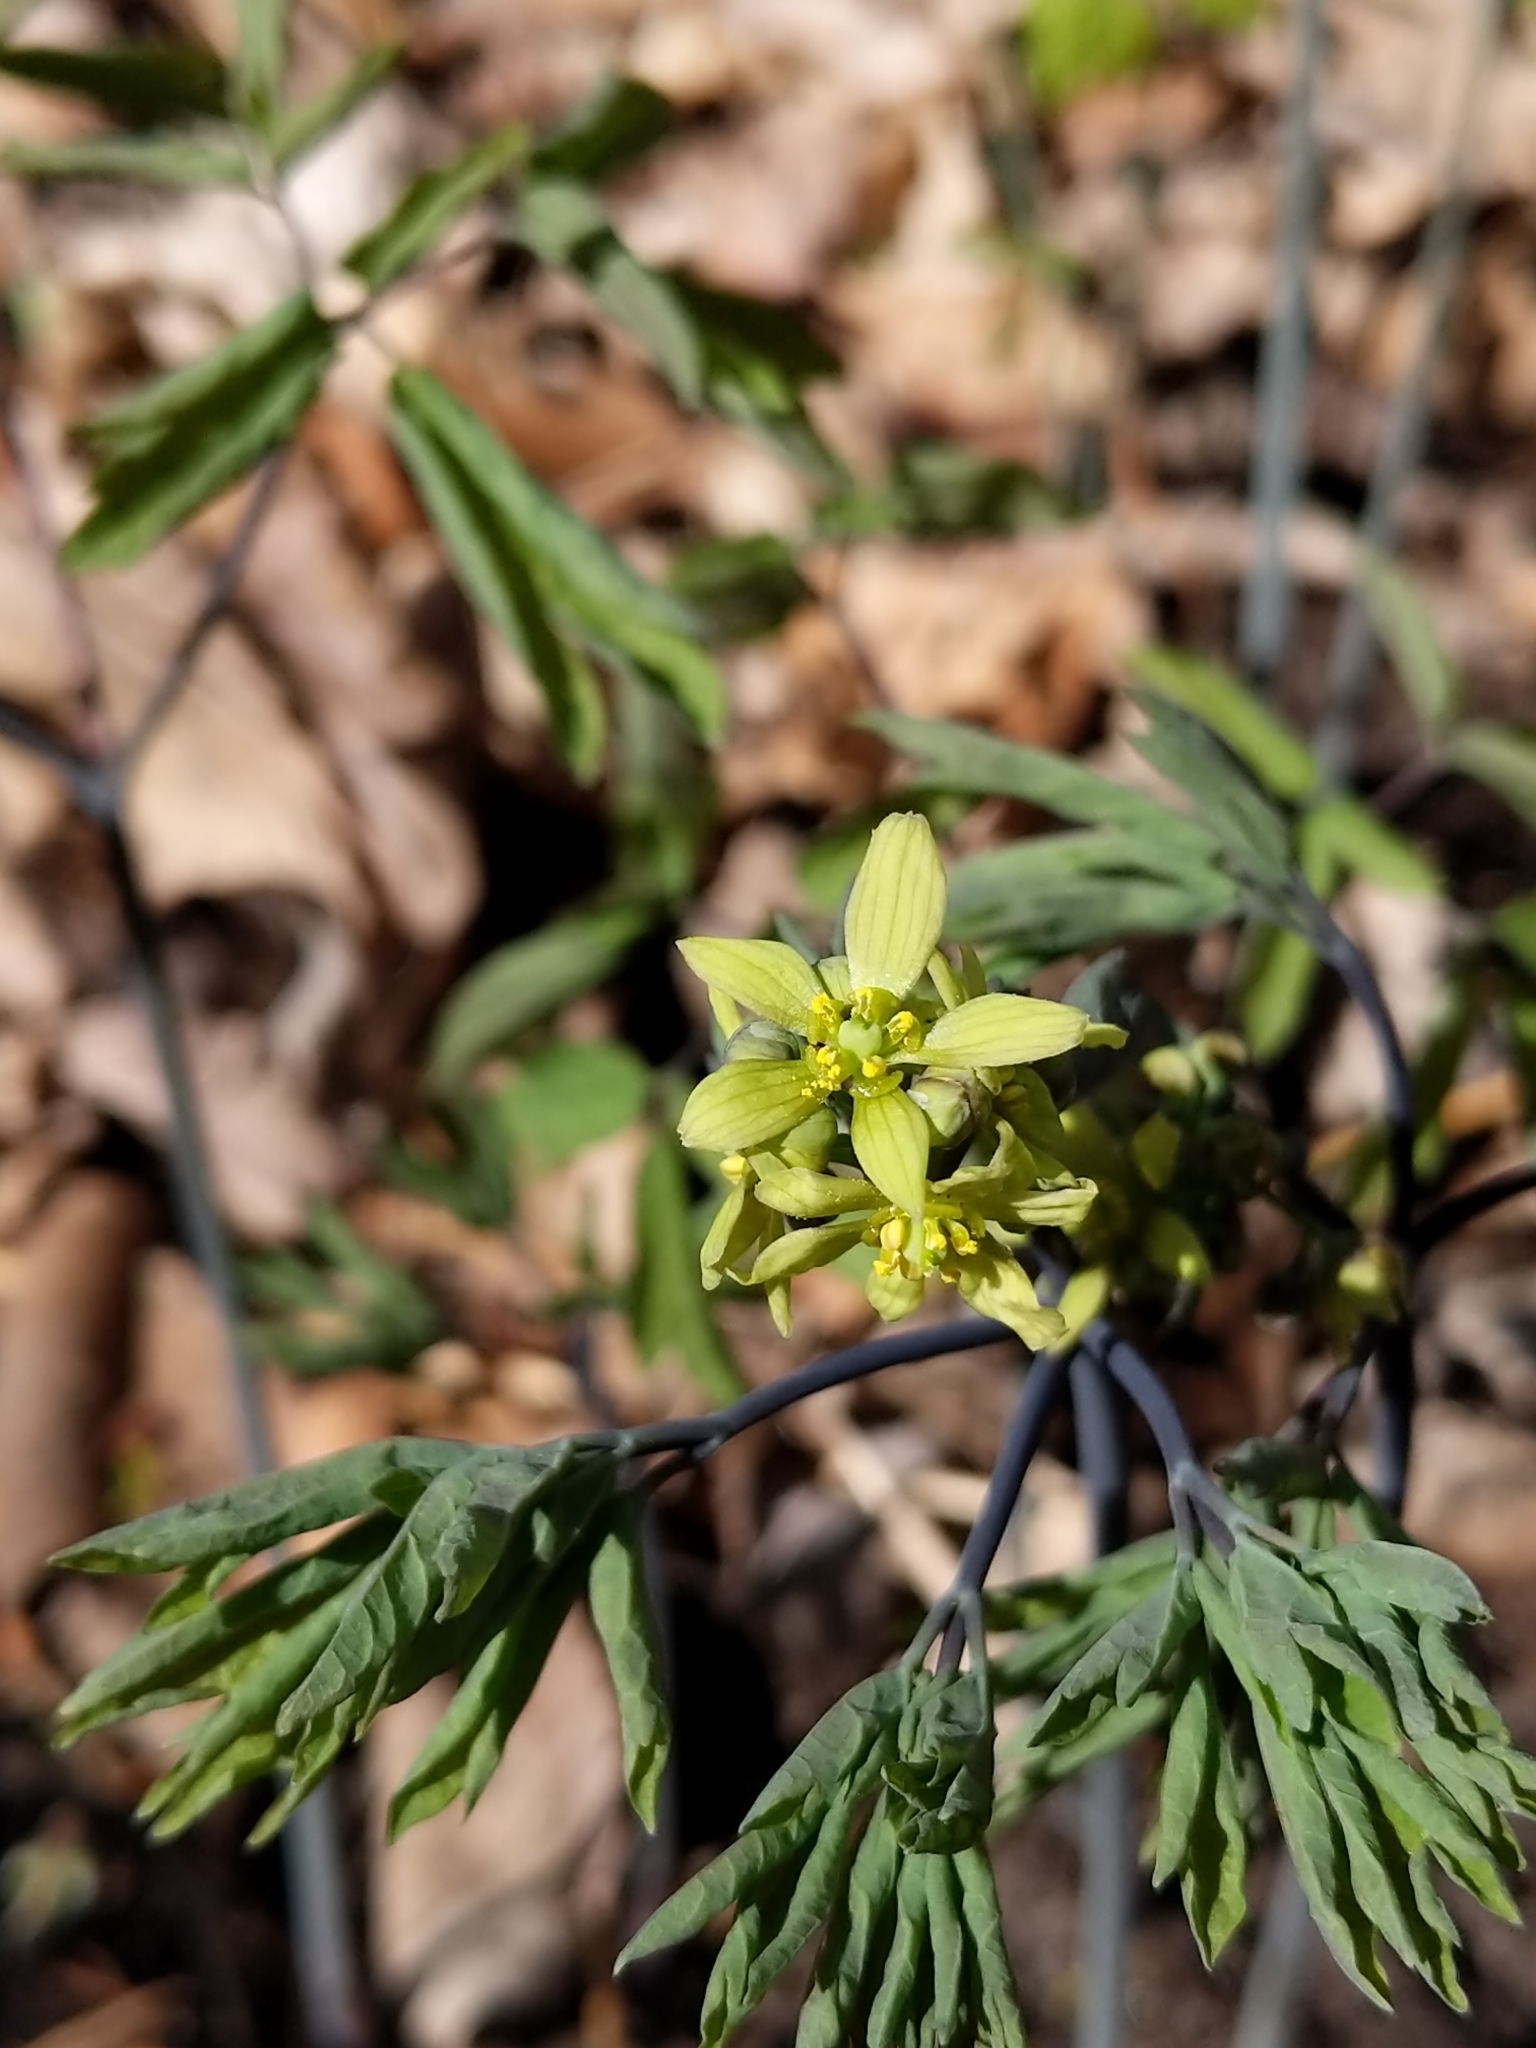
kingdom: Plantae
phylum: Tracheophyta
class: Magnoliopsida
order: Ranunculales
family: Berberidaceae
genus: Caulophyllum
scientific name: Caulophyllum giganteum
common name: Blue cohosh
